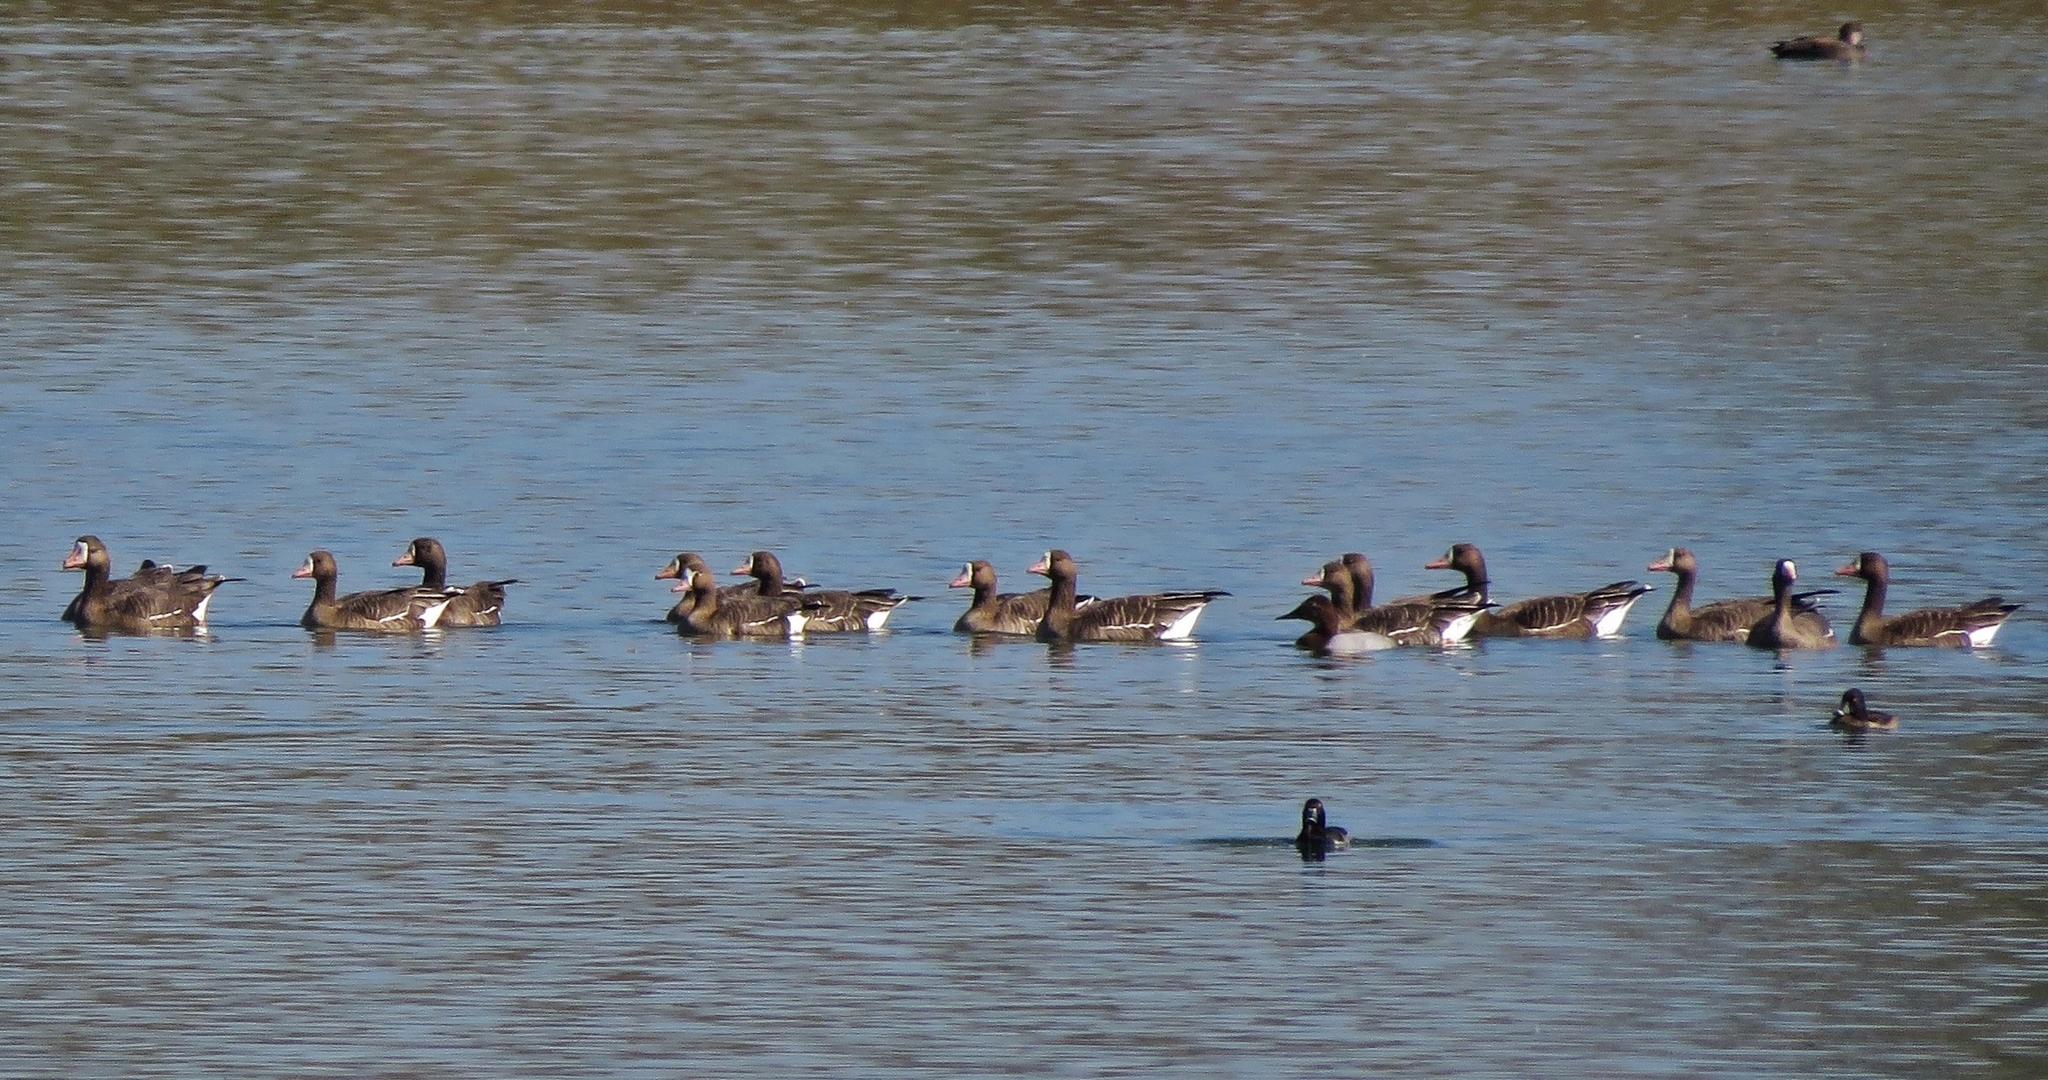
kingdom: Animalia
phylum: Chordata
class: Aves
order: Anseriformes
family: Anatidae
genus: Anser
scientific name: Anser albifrons
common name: Greater white-fronted goose
